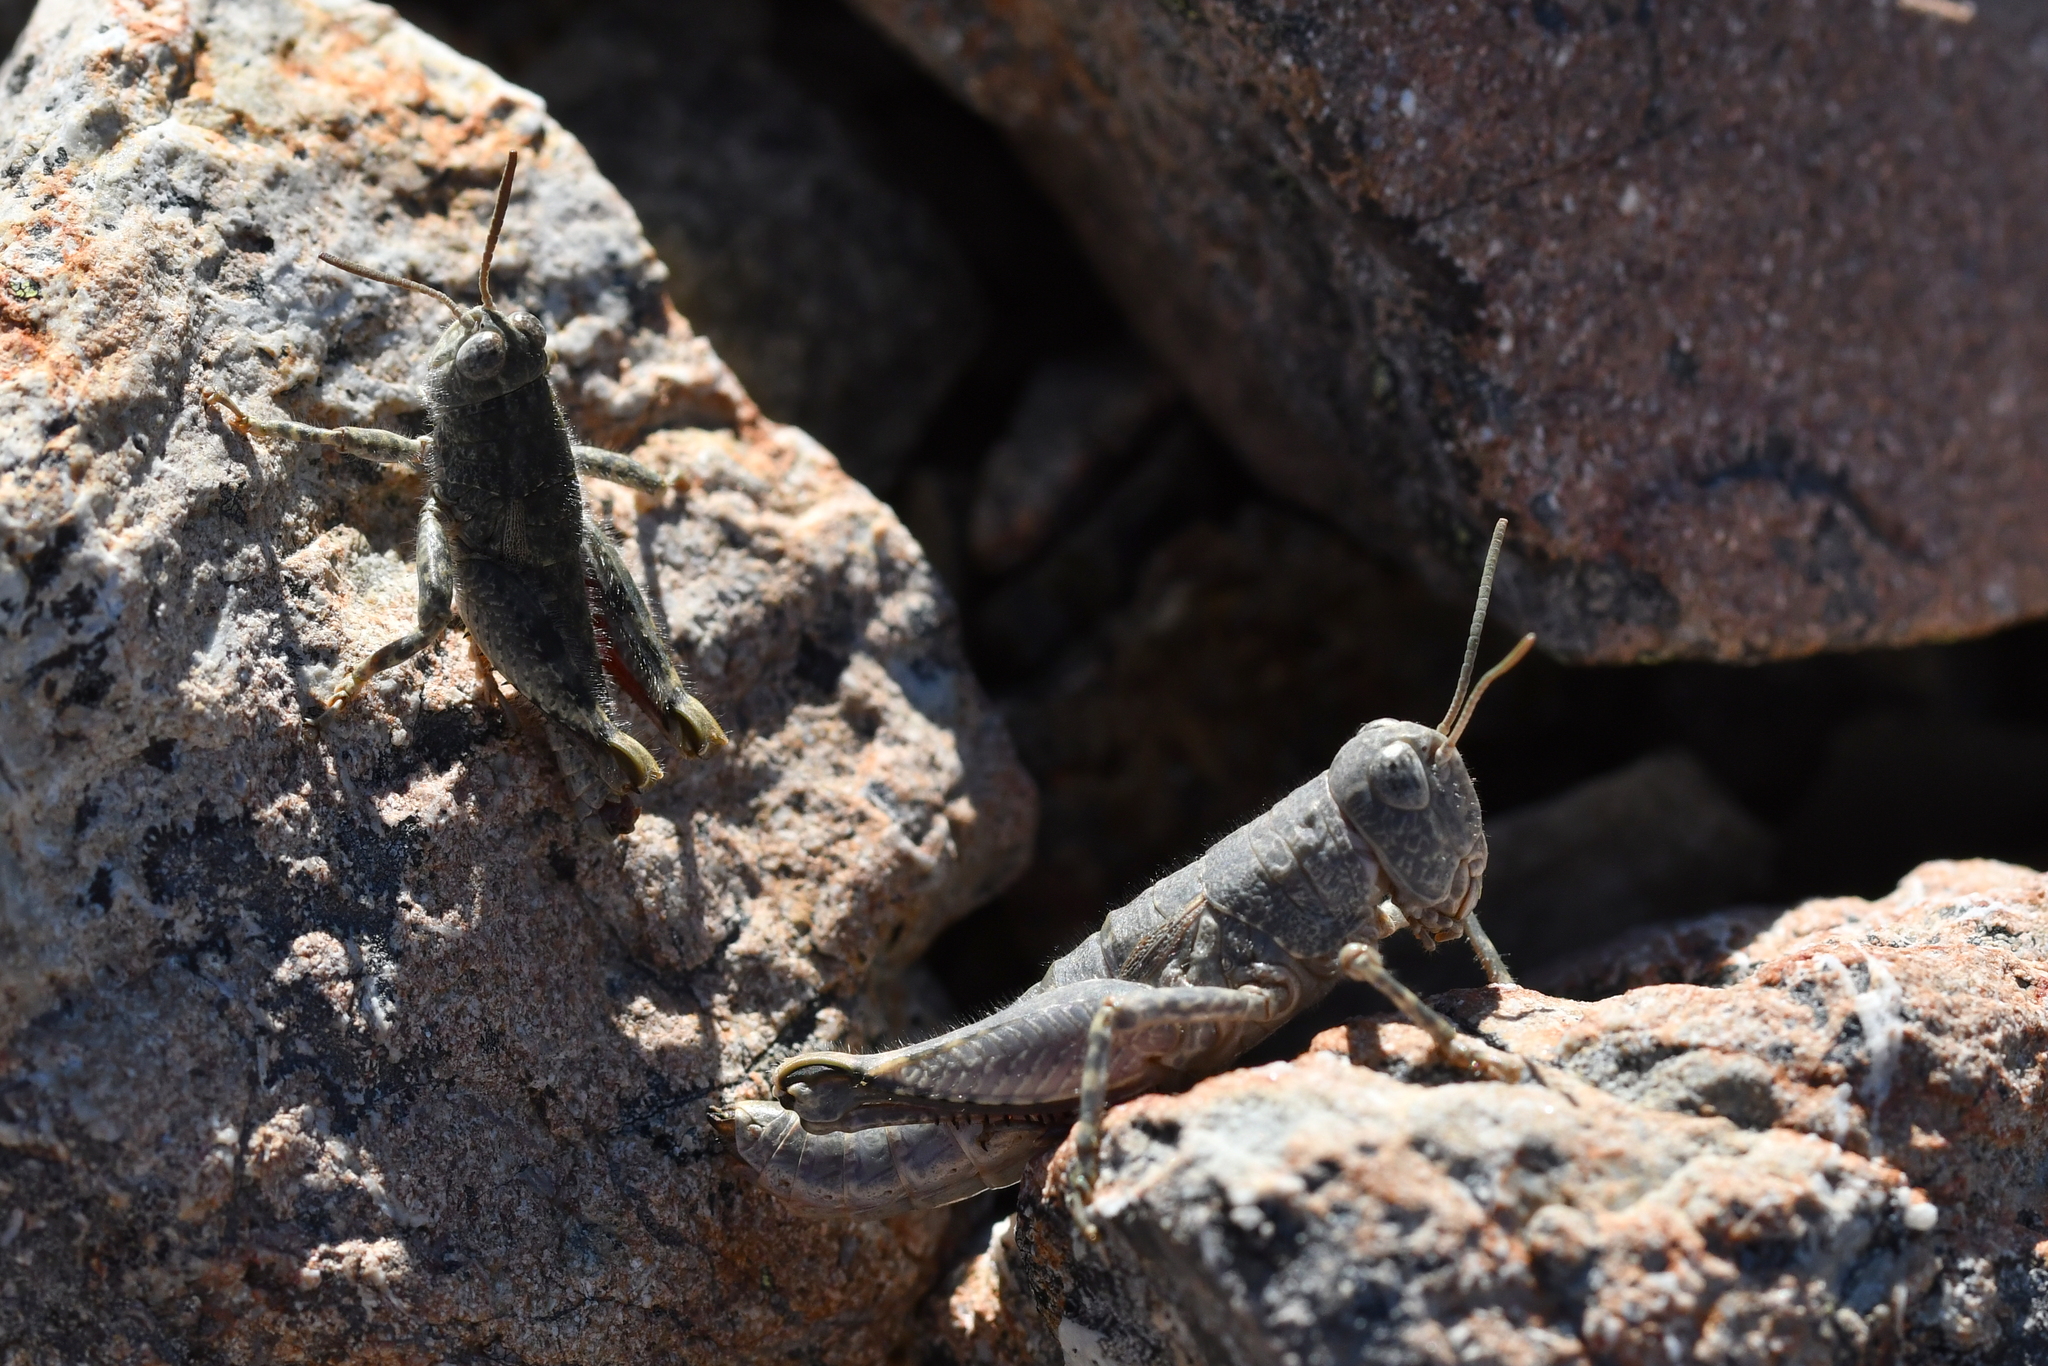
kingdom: Animalia
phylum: Arthropoda
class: Insecta
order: Orthoptera
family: Acrididae
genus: Sigaus
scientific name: Sigaus
